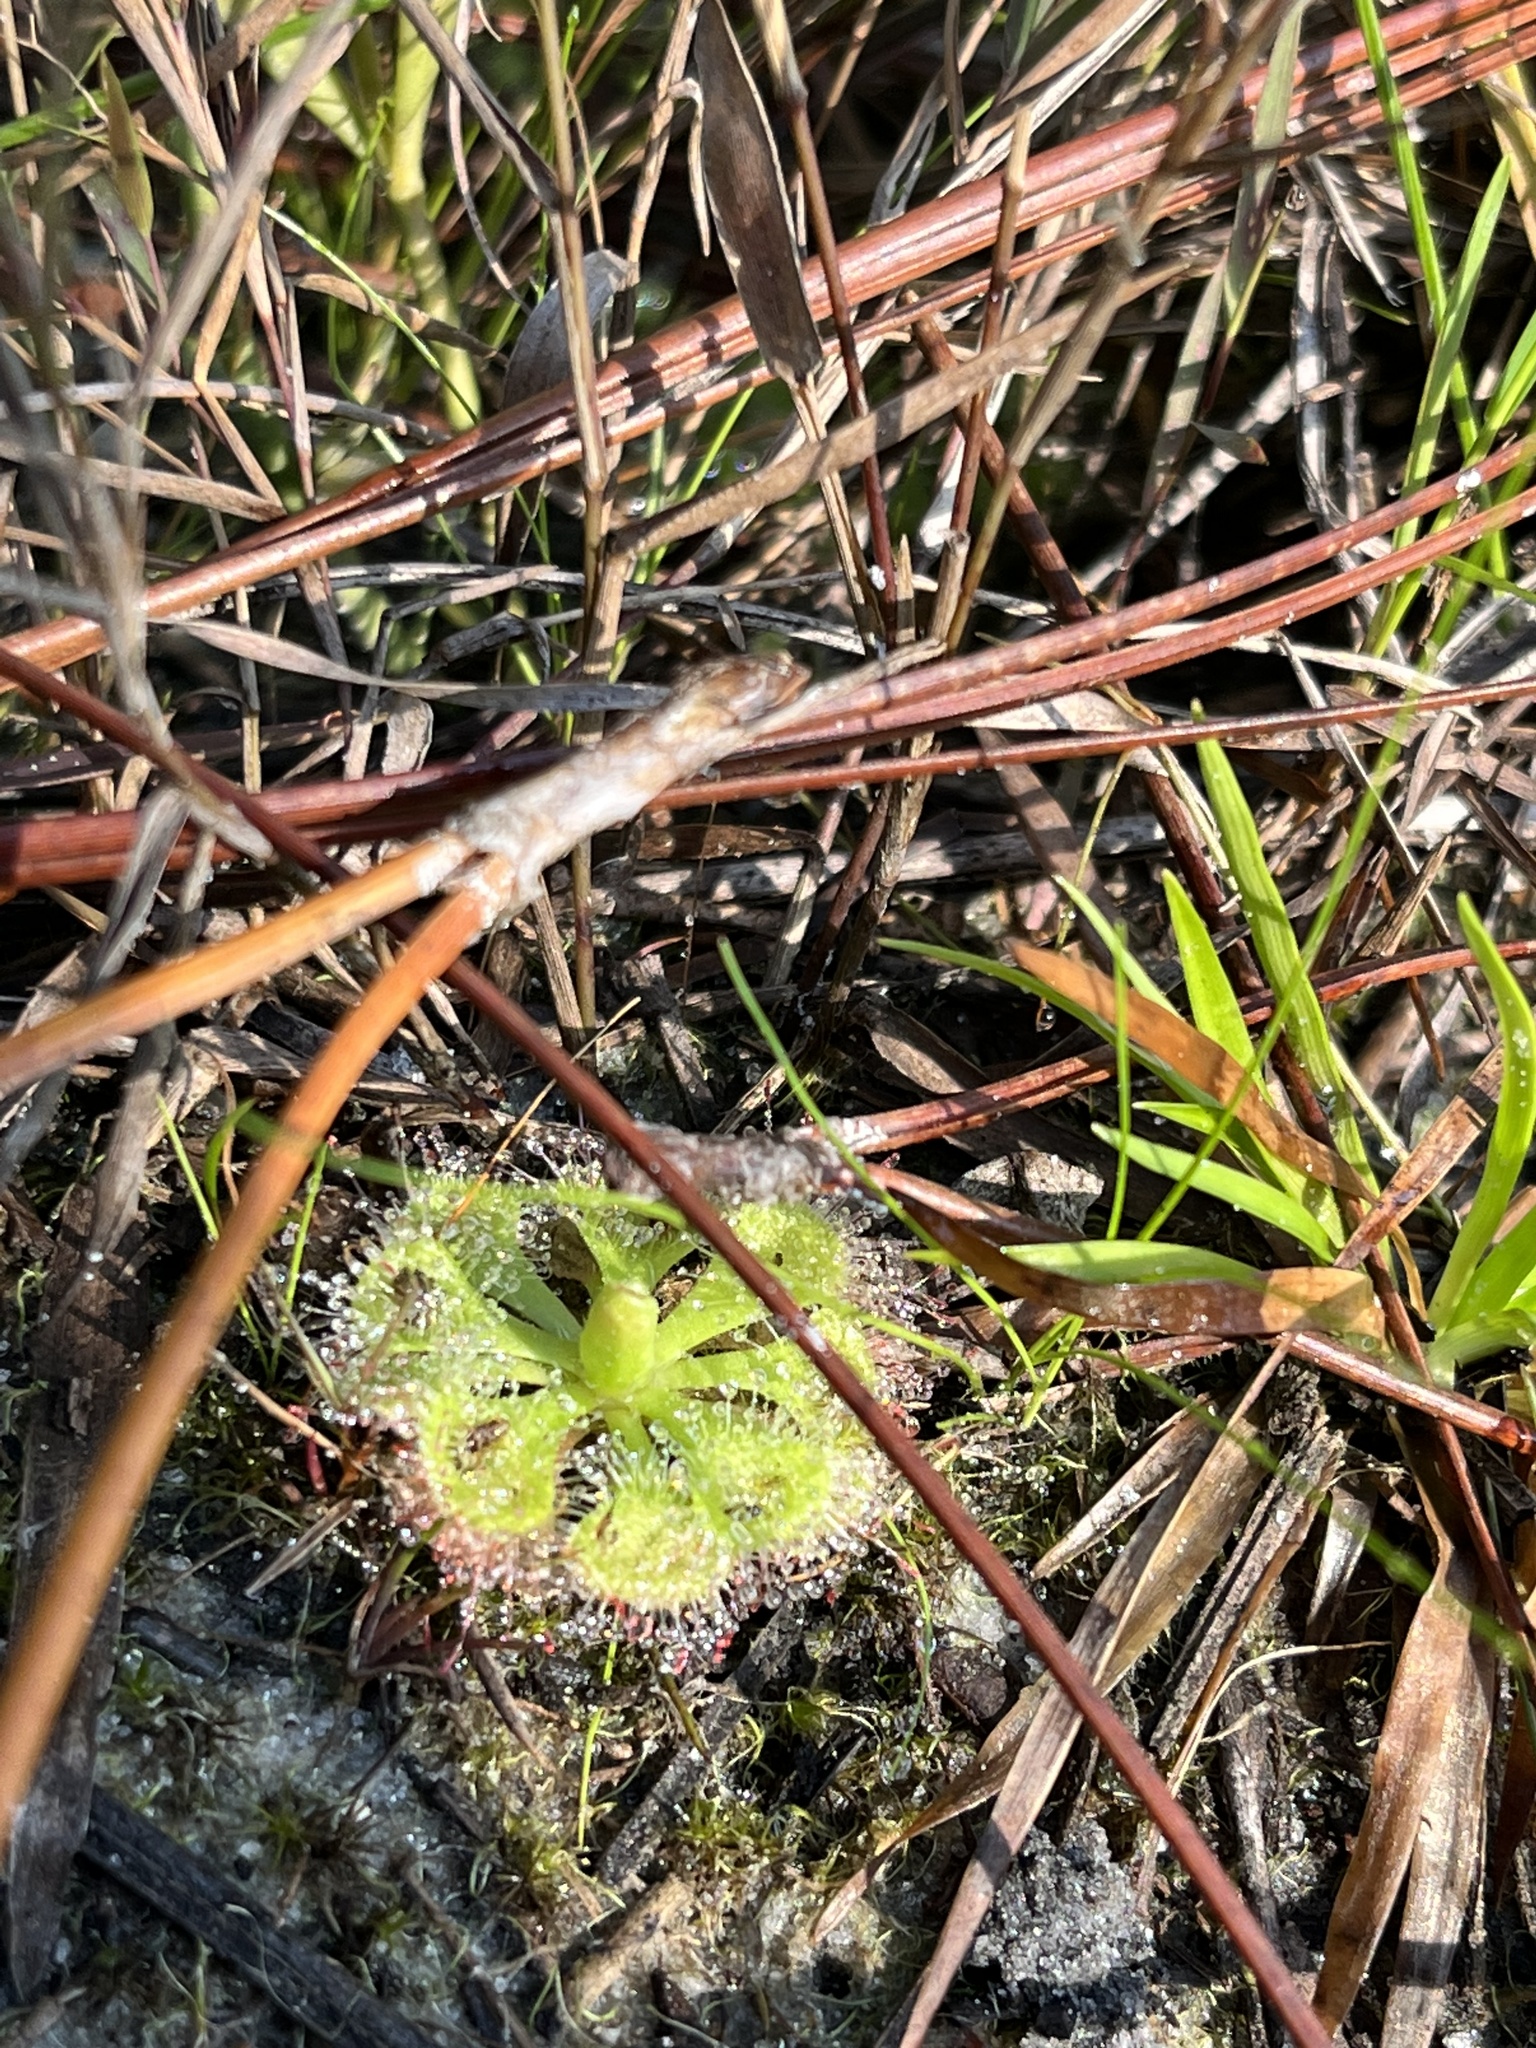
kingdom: Plantae
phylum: Tracheophyta
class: Magnoliopsida
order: Caryophyllales
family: Droseraceae
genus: Drosera
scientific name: Drosera spatulata
